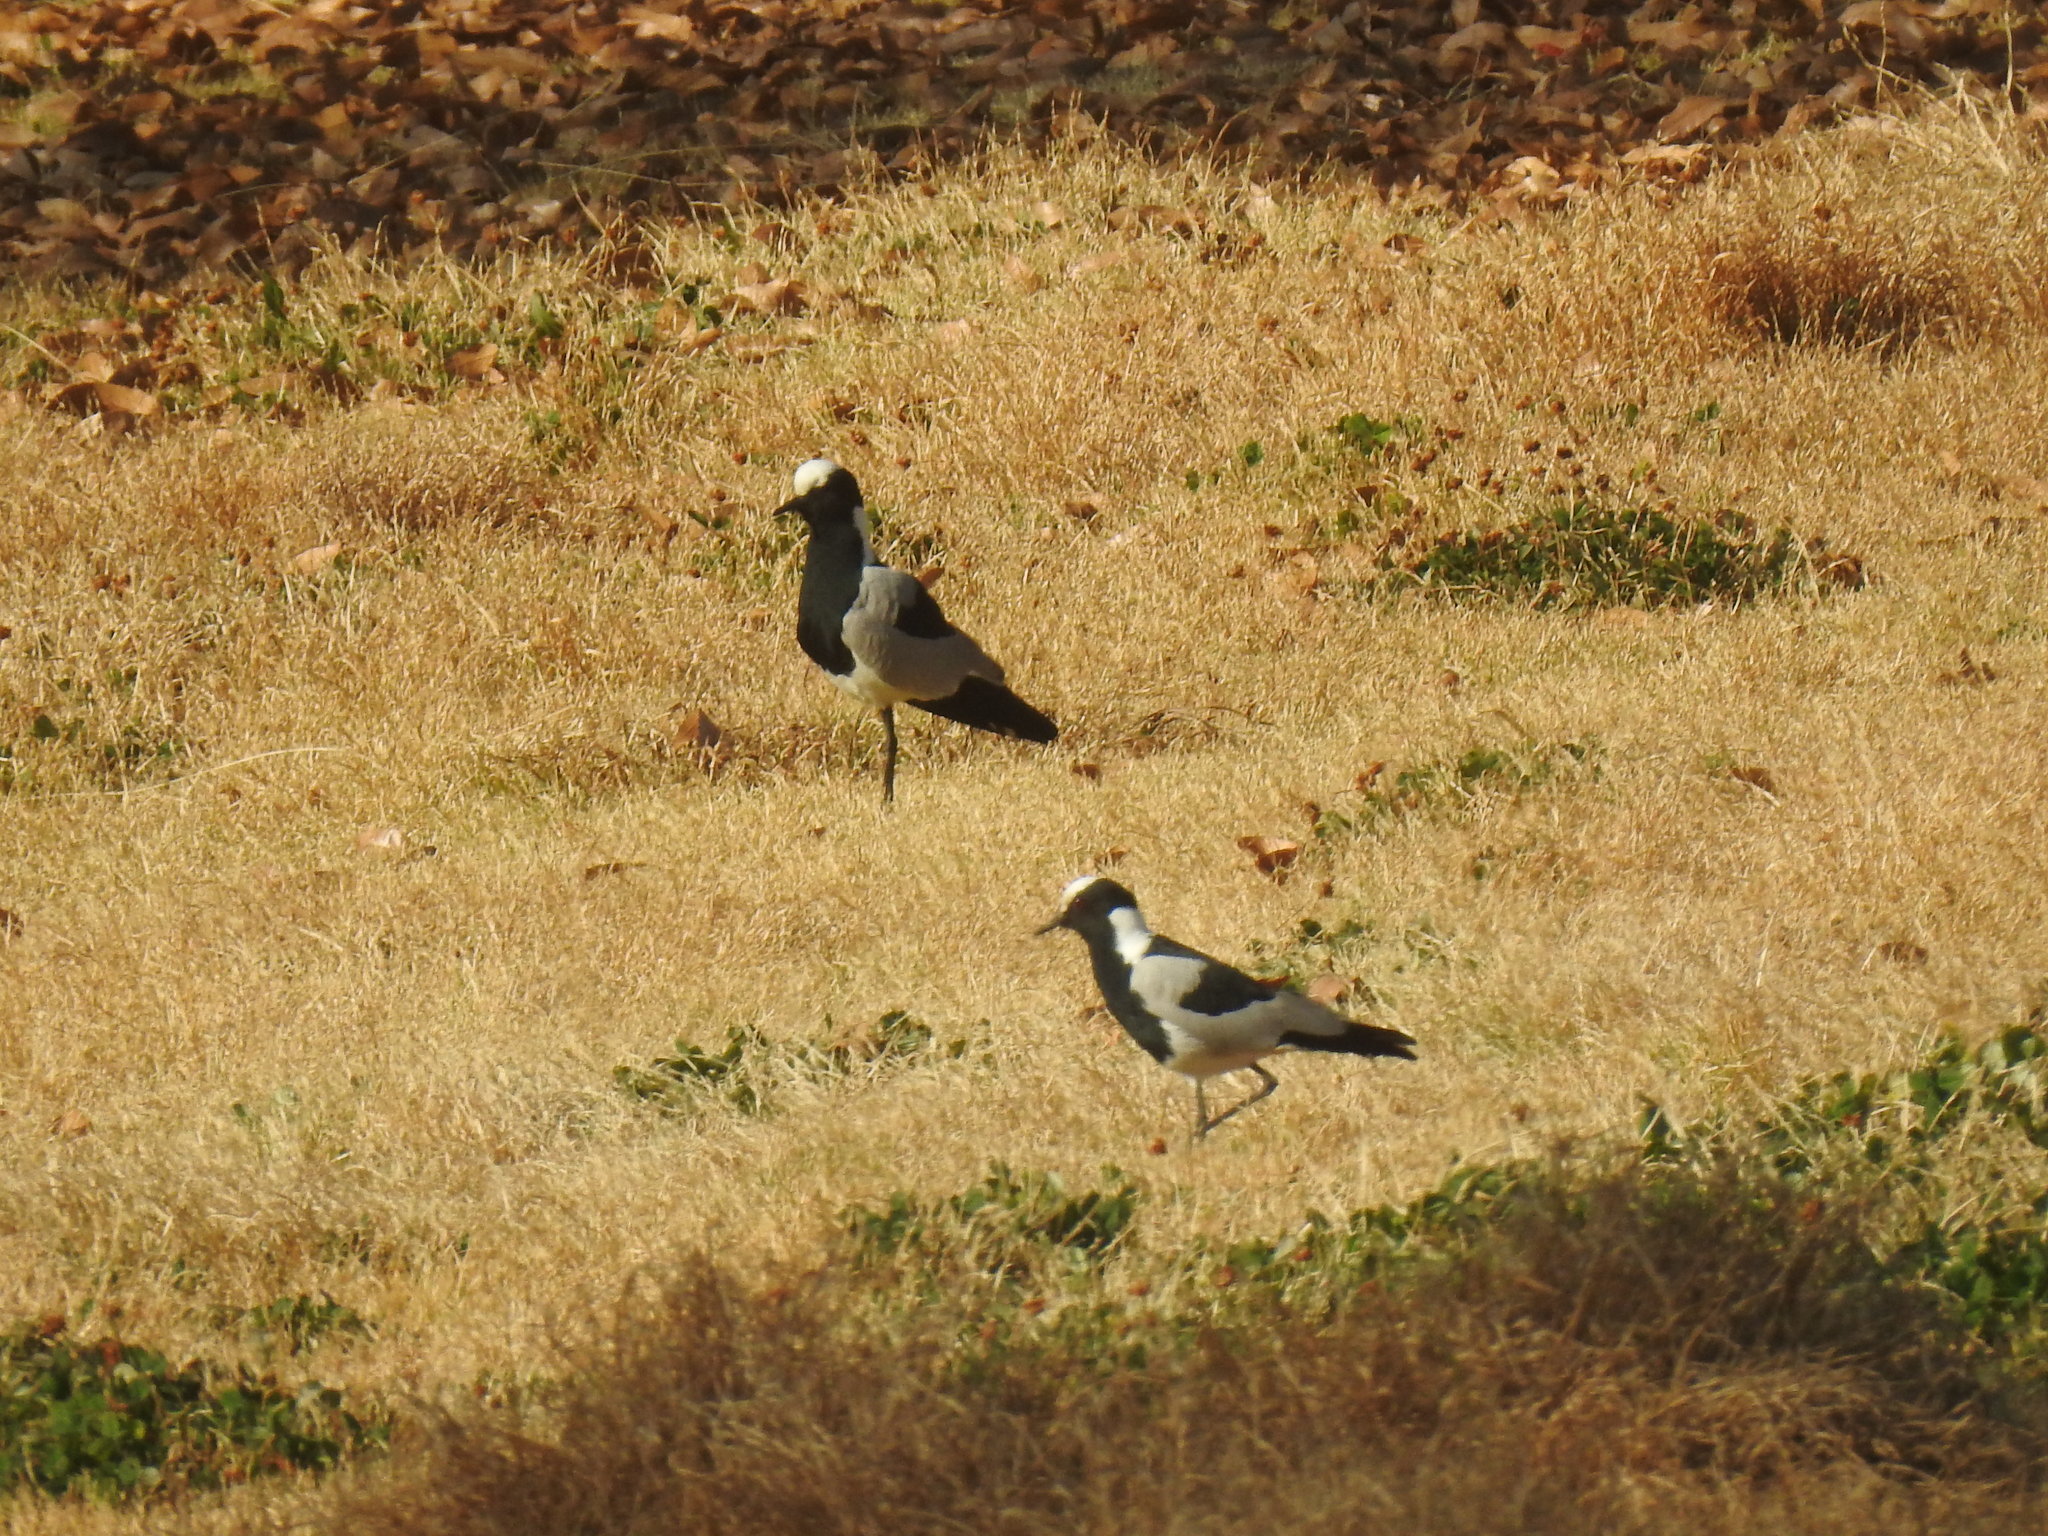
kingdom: Animalia
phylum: Chordata
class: Aves
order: Charadriiformes
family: Charadriidae
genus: Vanellus
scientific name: Vanellus armatus
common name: Blacksmith lapwing
